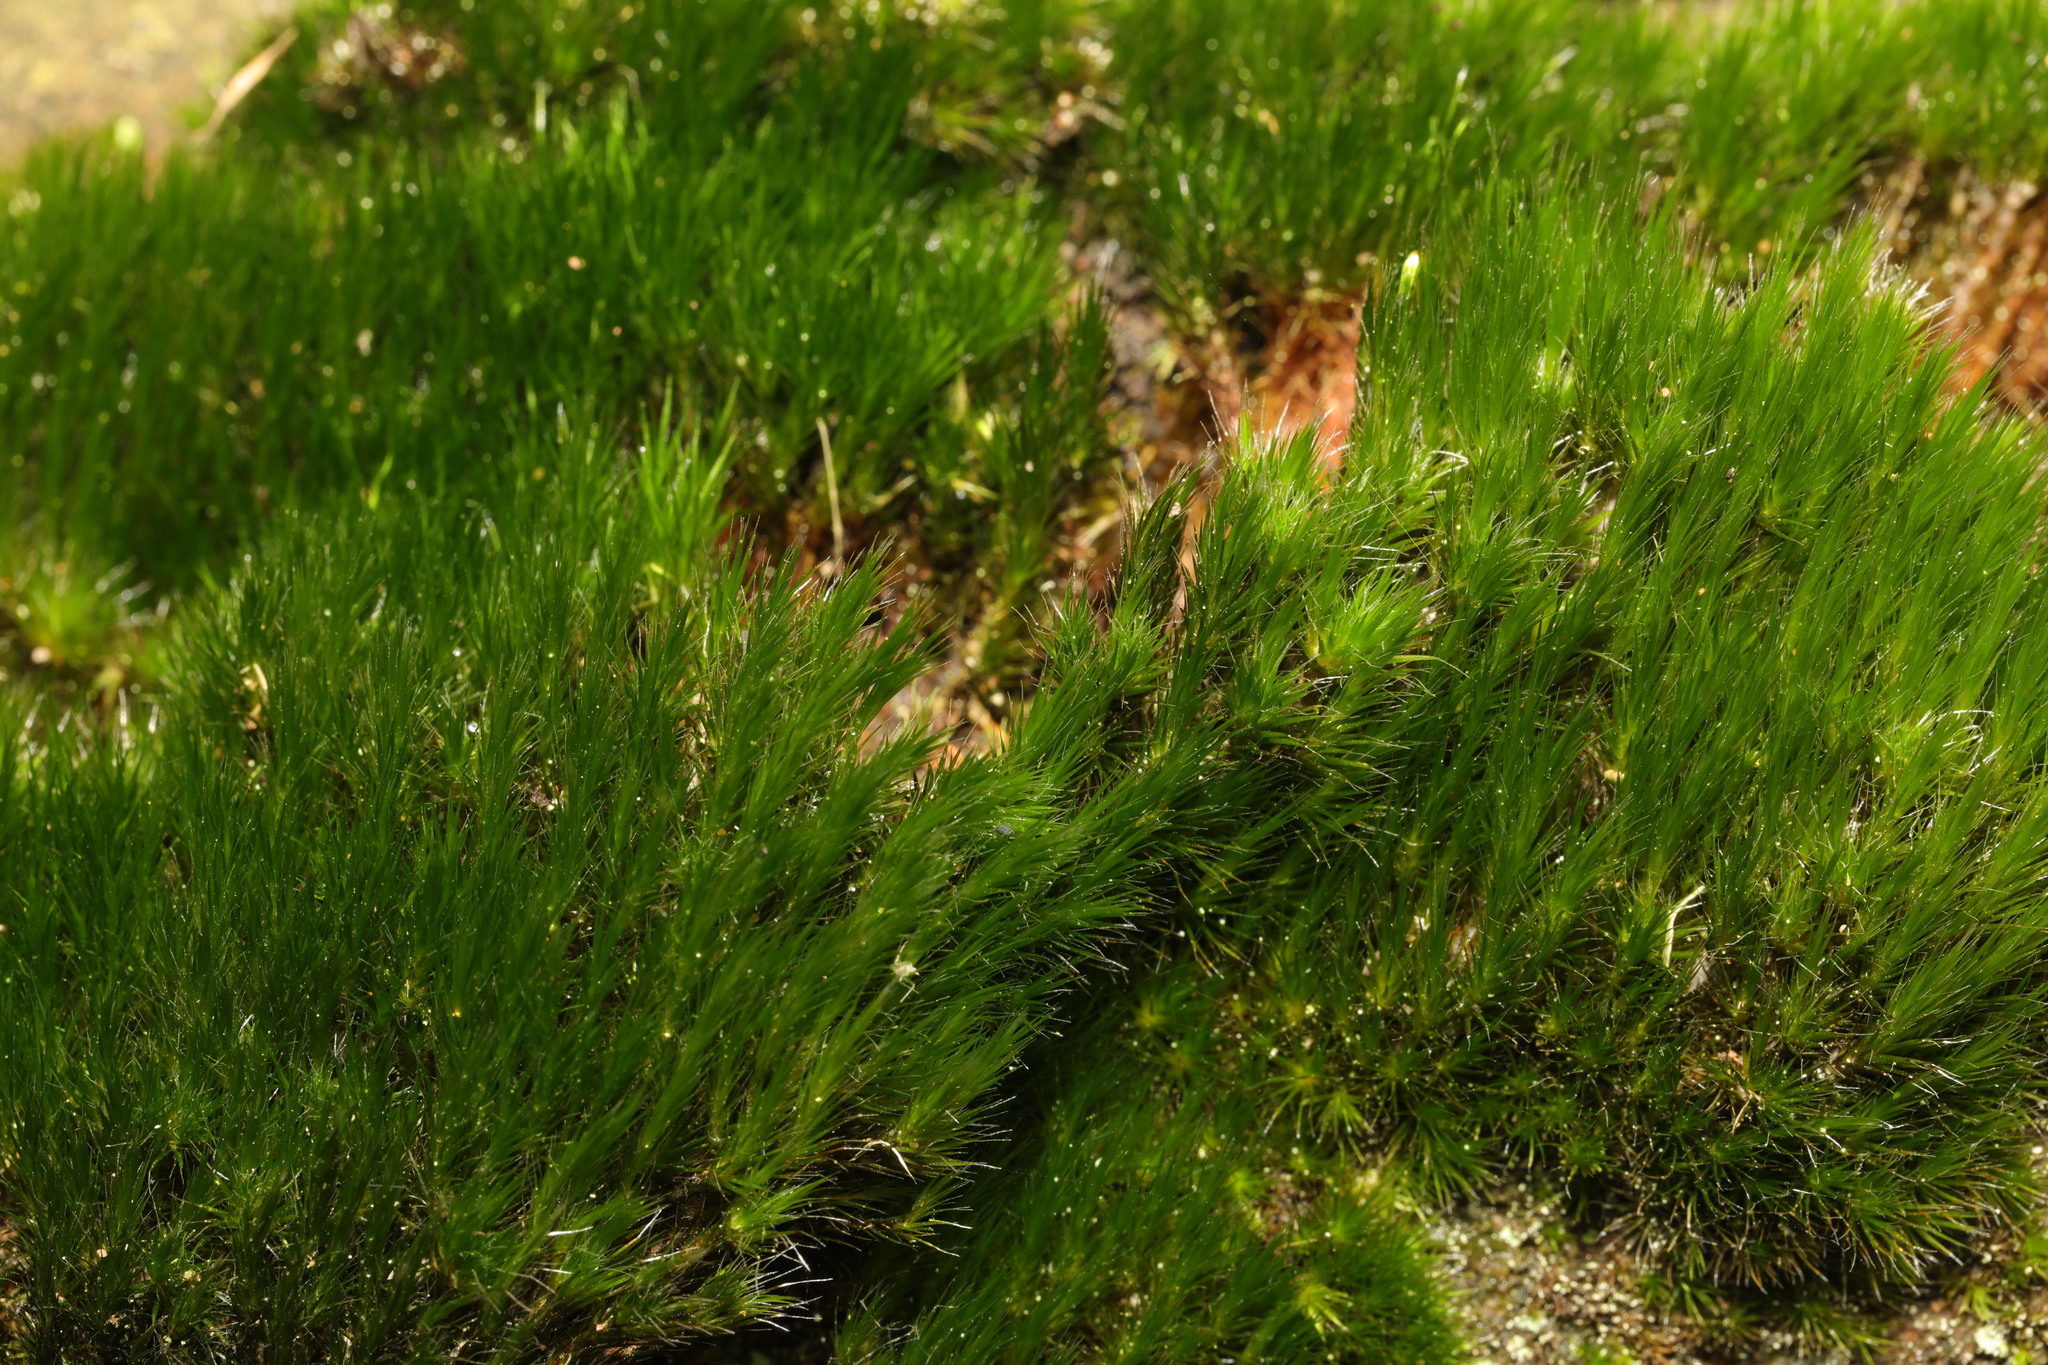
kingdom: Plantae
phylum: Bryophyta
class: Bryopsida
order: Dicranales
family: Leucobryaceae
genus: Campylopus
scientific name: Campylopus introflexus
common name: Heath star moss
